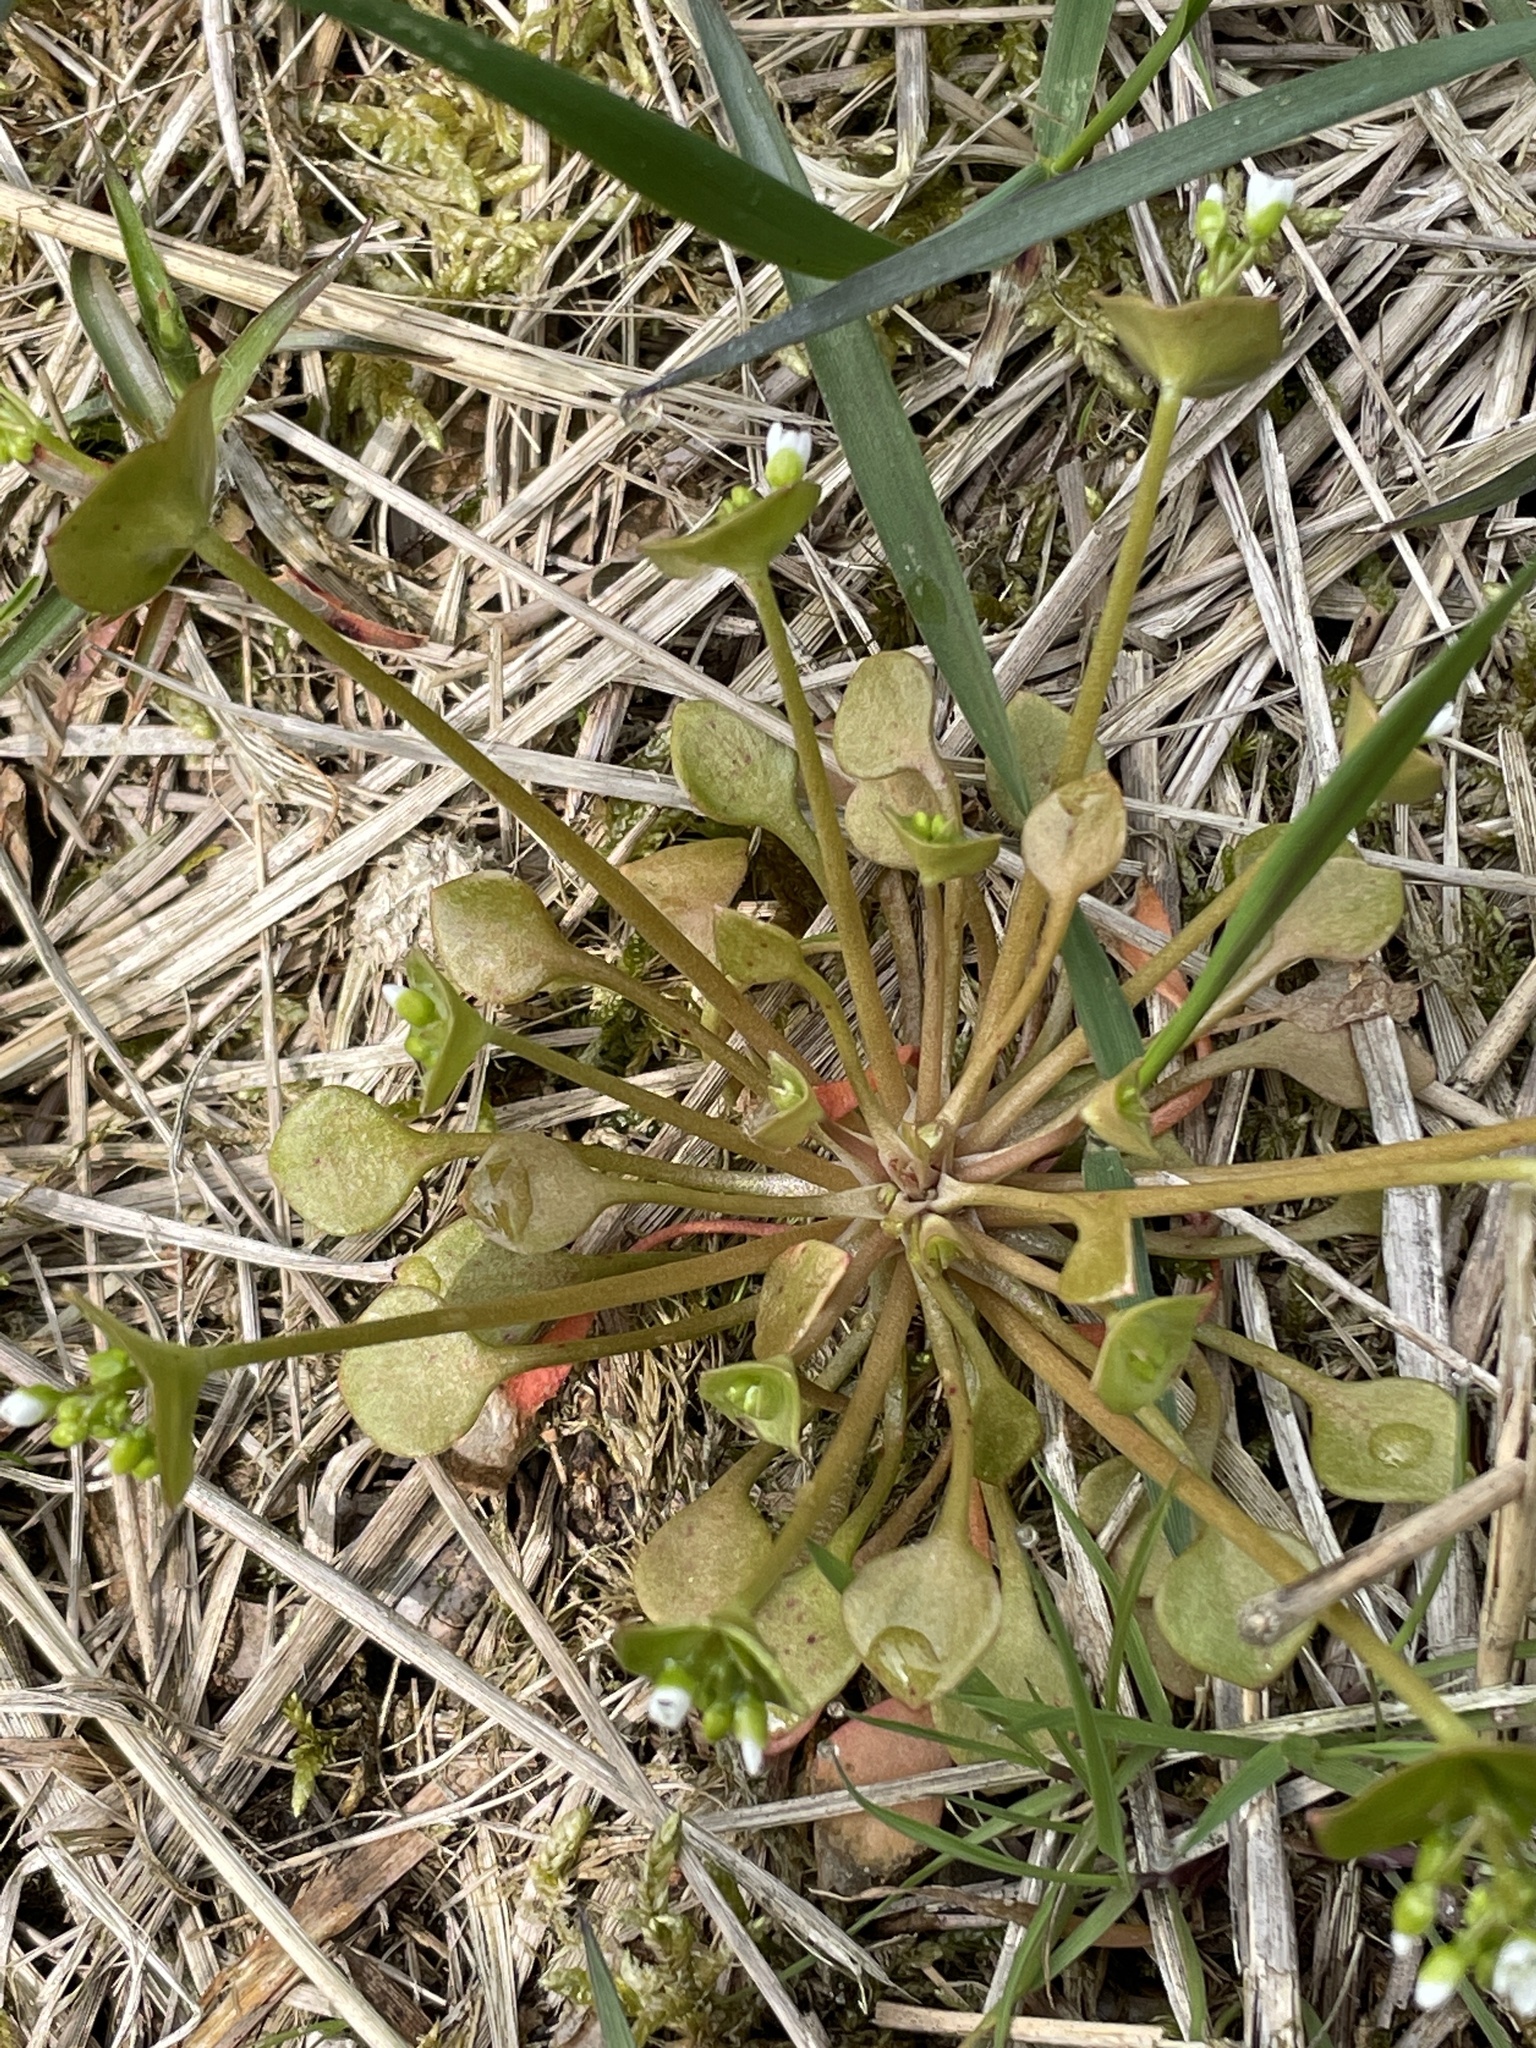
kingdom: Plantae
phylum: Tracheophyta
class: Magnoliopsida
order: Caryophyllales
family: Montiaceae
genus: Claytonia
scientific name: Claytonia perfoliata
